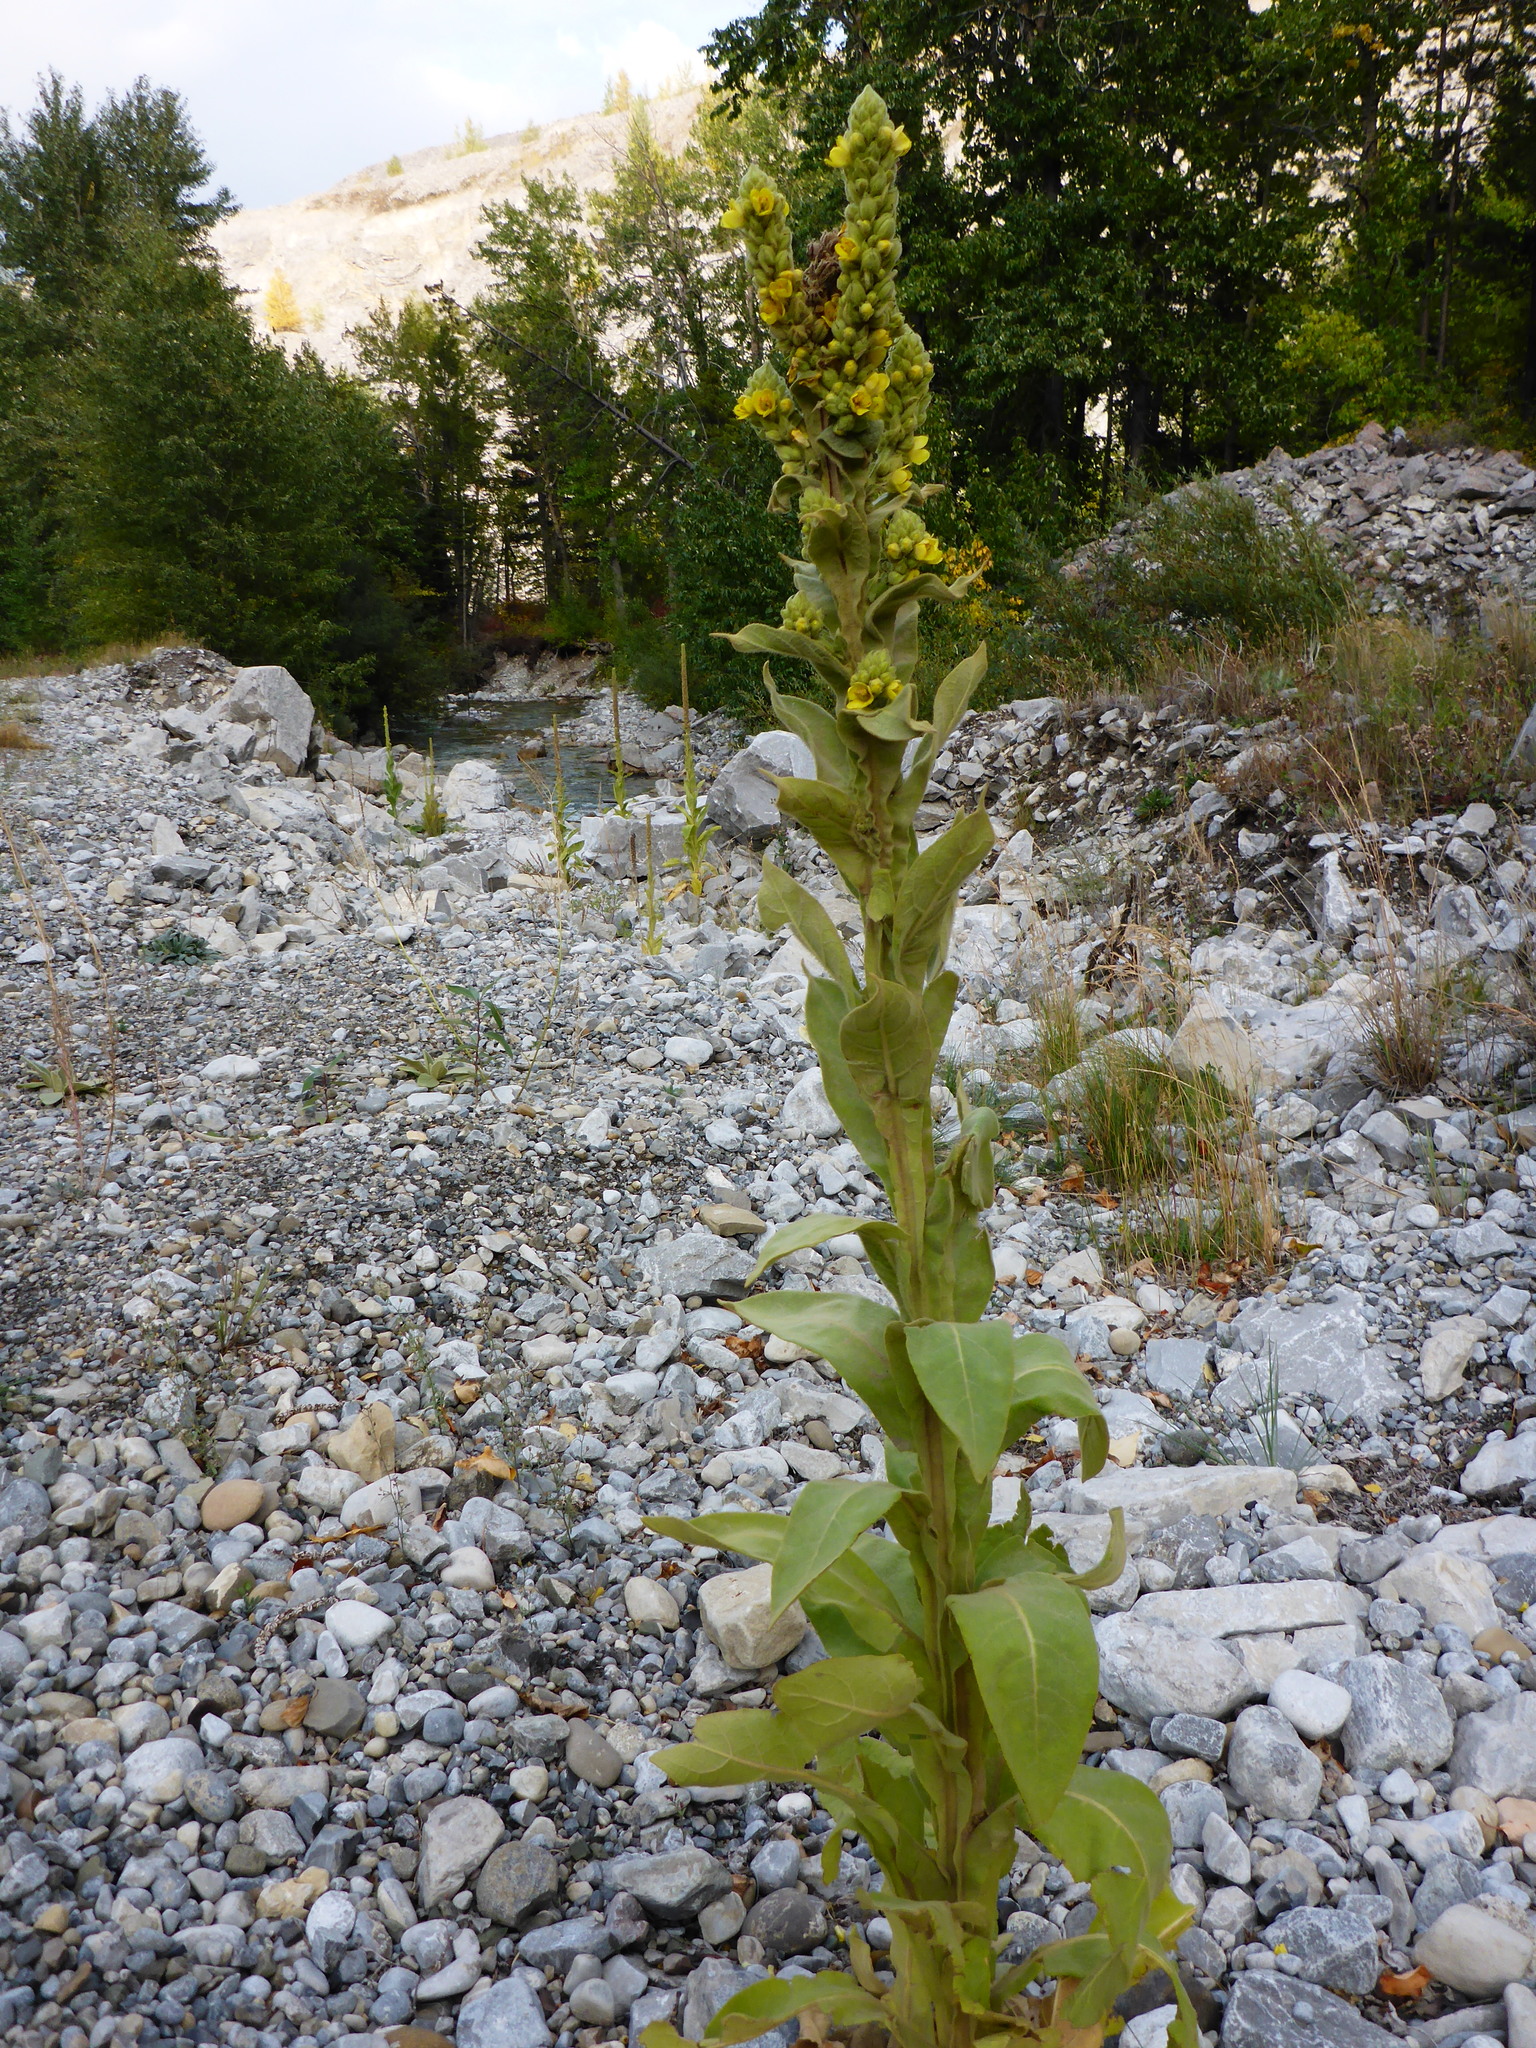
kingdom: Plantae
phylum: Tracheophyta
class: Magnoliopsida
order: Lamiales
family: Scrophulariaceae
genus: Verbascum
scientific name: Verbascum thapsus
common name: Common mullein
